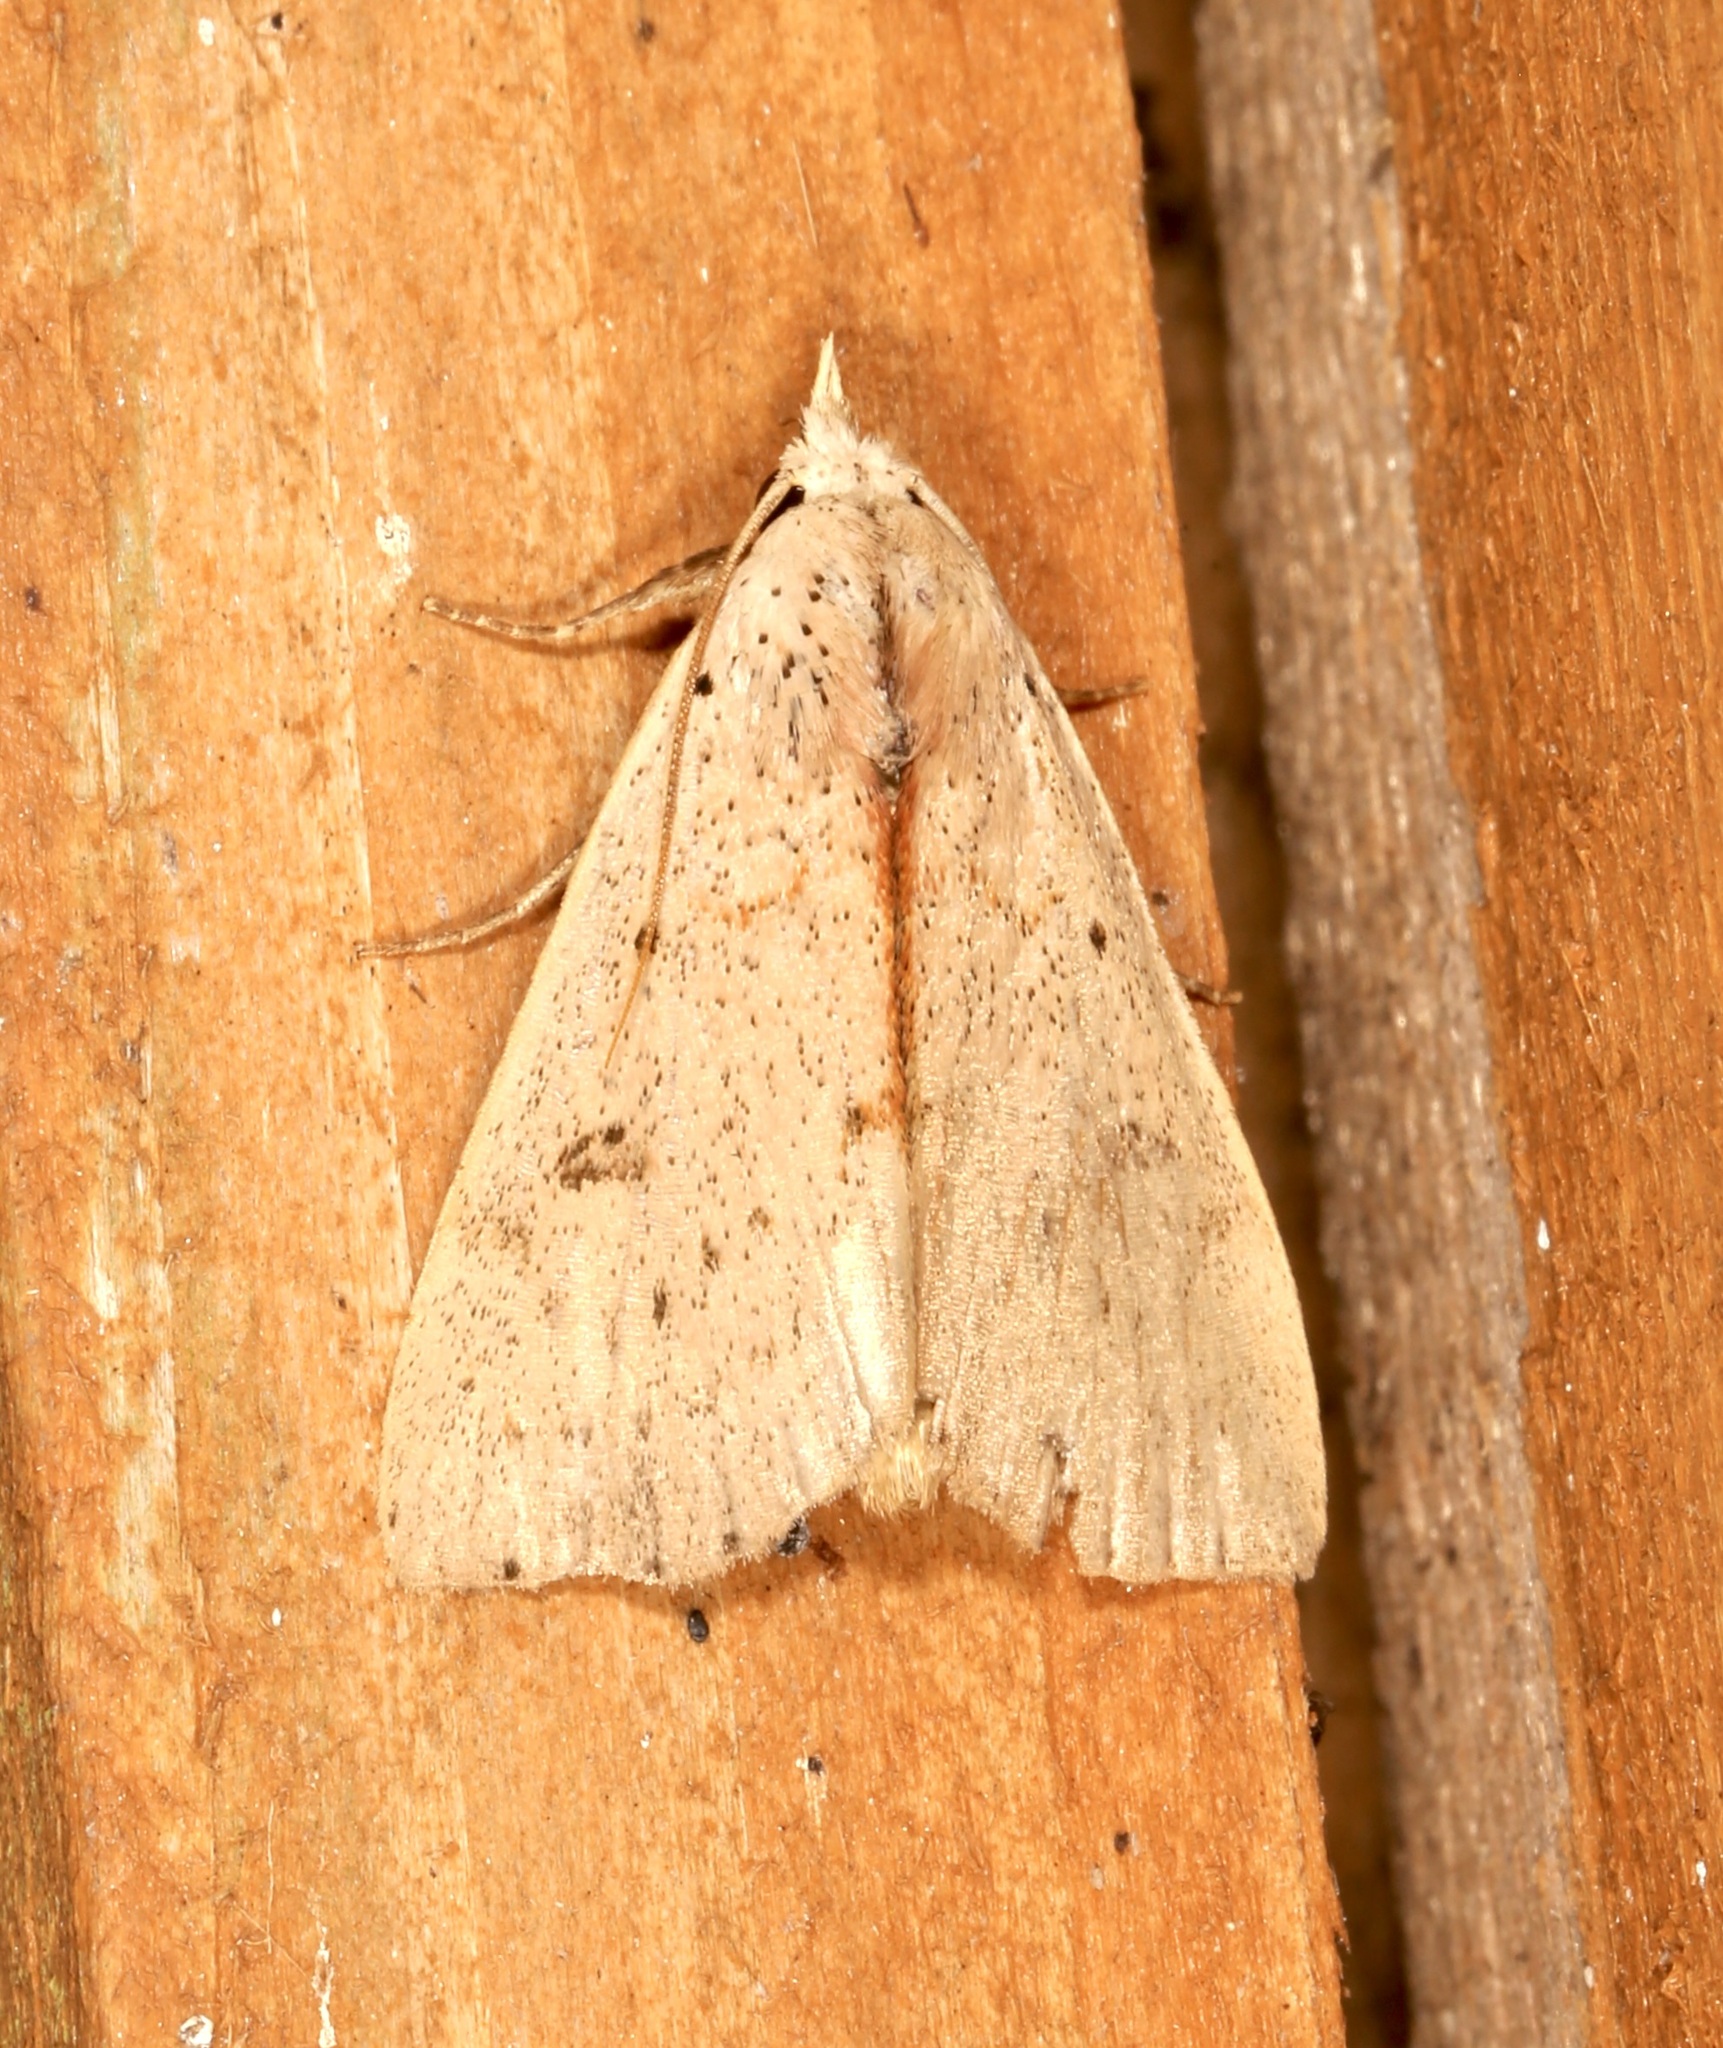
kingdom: Animalia
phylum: Arthropoda
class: Insecta
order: Lepidoptera
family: Erebidae
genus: Scolecocampa
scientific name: Scolecocampa liburna
